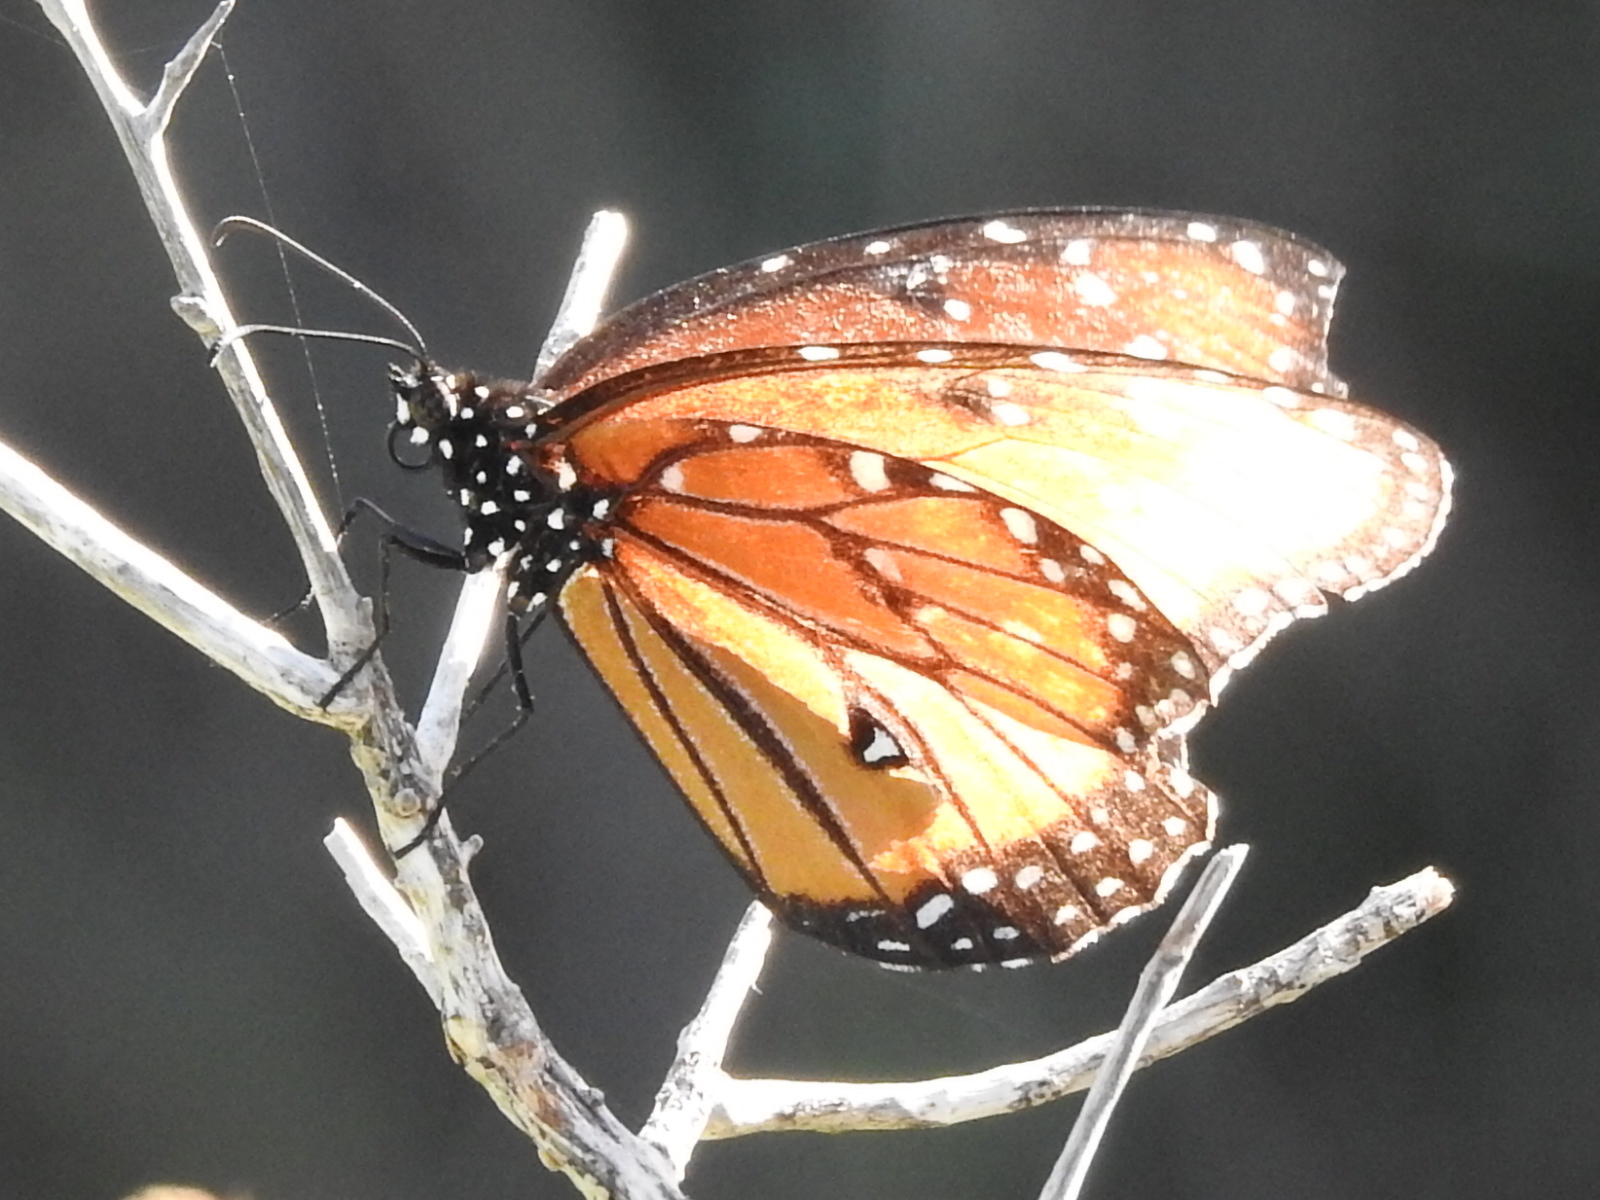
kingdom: Animalia
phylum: Arthropoda
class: Insecta
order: Lepidoptera
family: Nymphalidae
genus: Danaus
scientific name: Danaus gilippus
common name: Queen
